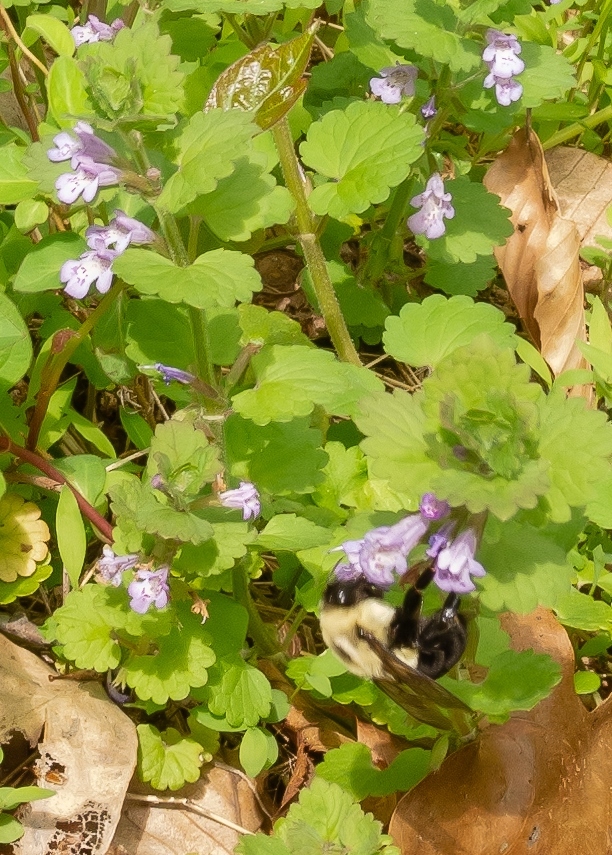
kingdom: Animalia
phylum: Arthropoda
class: Insecta
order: Hymenoptera
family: Apidae
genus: Bombus
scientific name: Bombus impatiens
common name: Common eastern bumble bee
